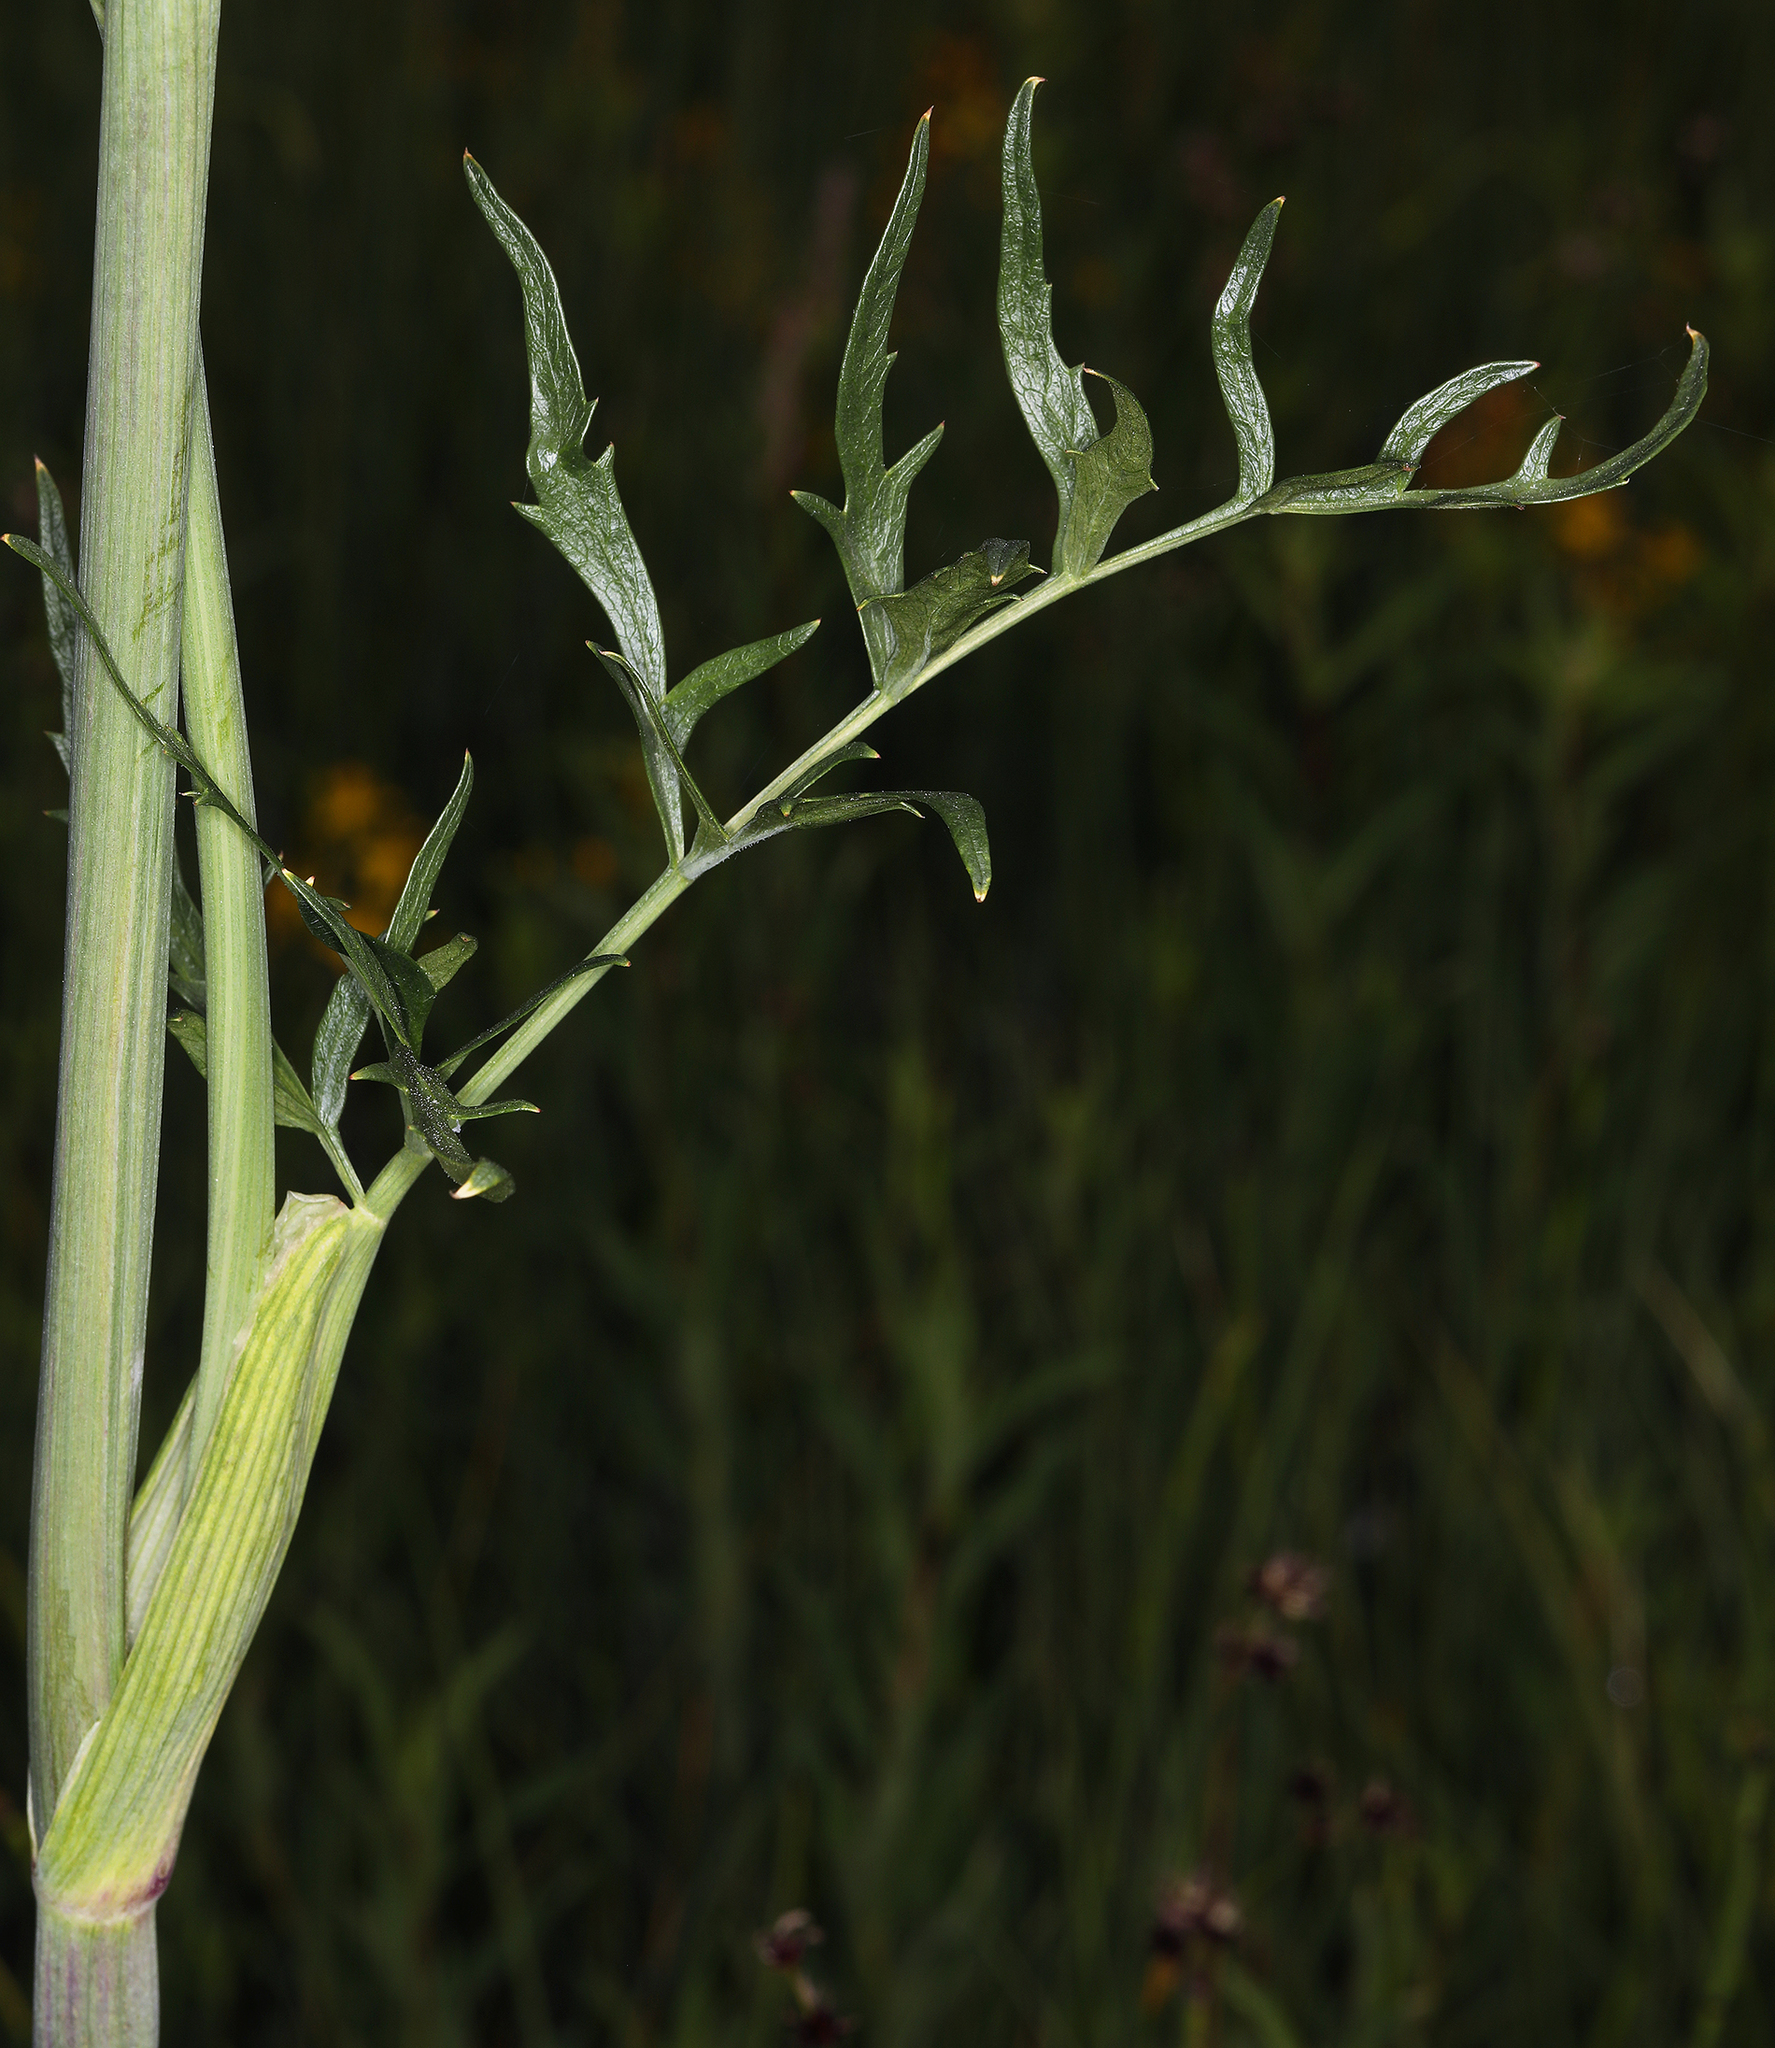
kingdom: Plantae
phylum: Tracheophyta
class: Magnoliopsida
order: Apiales
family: Apiaceae
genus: Angelica
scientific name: Angelica capitellata
